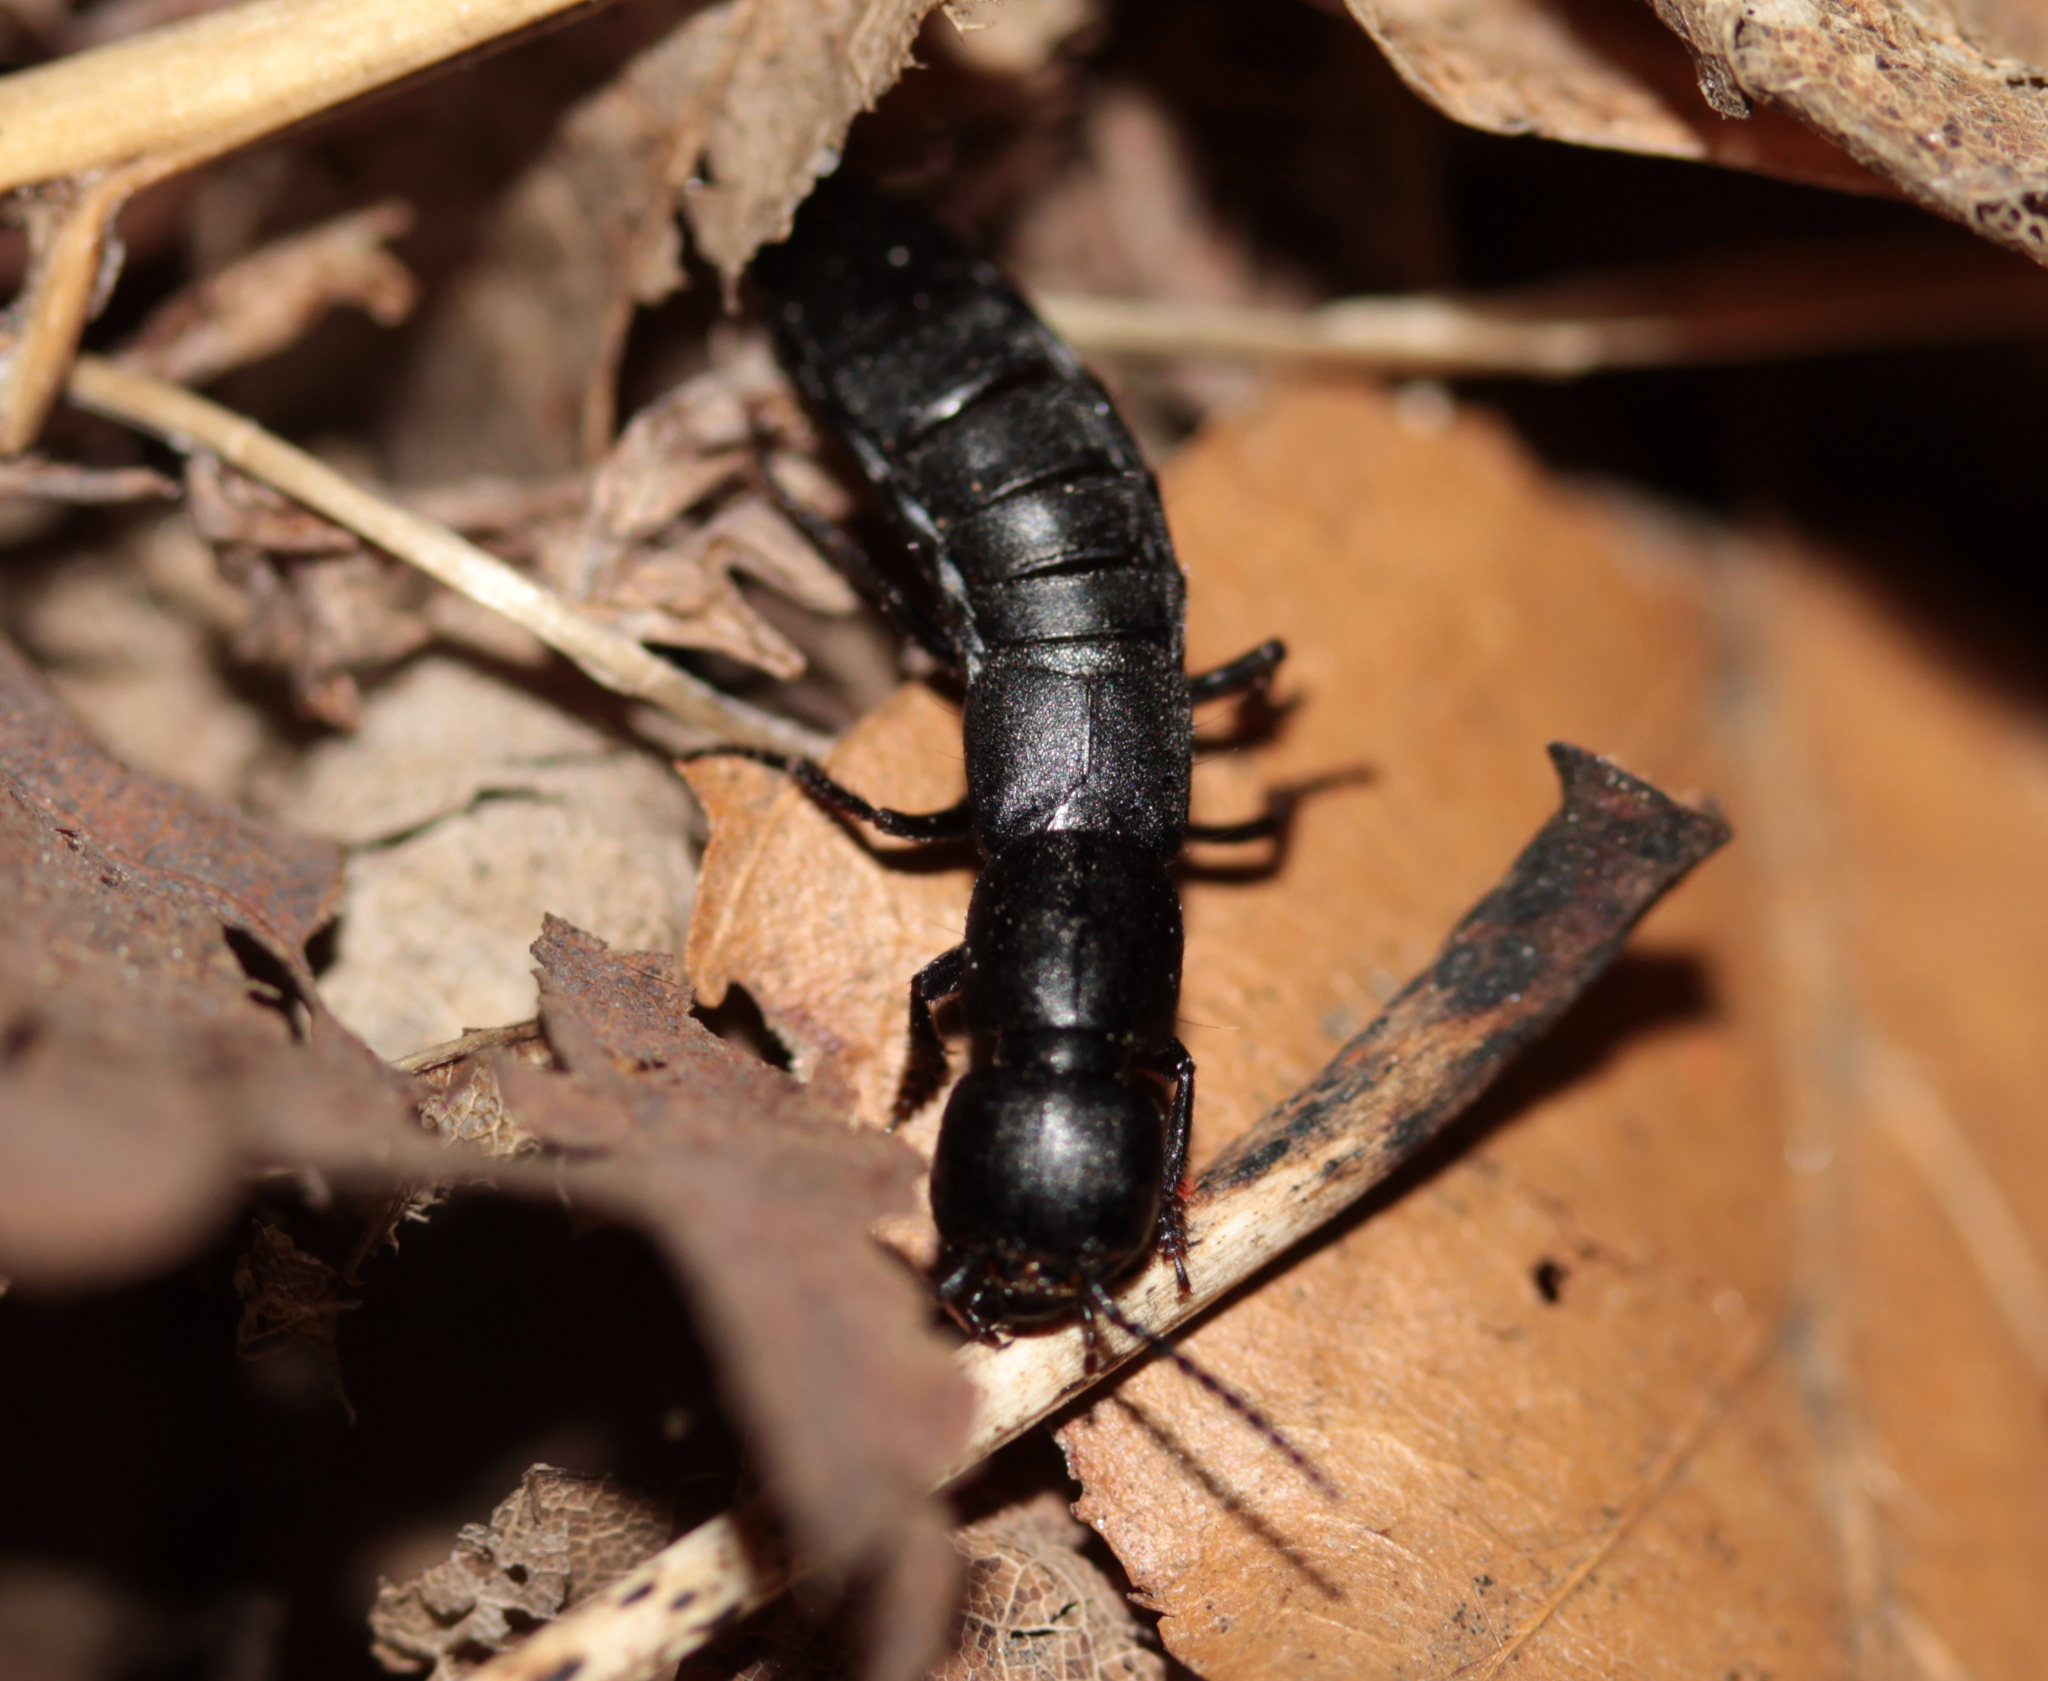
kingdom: Animalia
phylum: Arthropoda
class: Insecta
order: Coleoptera
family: Staphylinidae
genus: Ocypus
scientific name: Ocypus nitens
